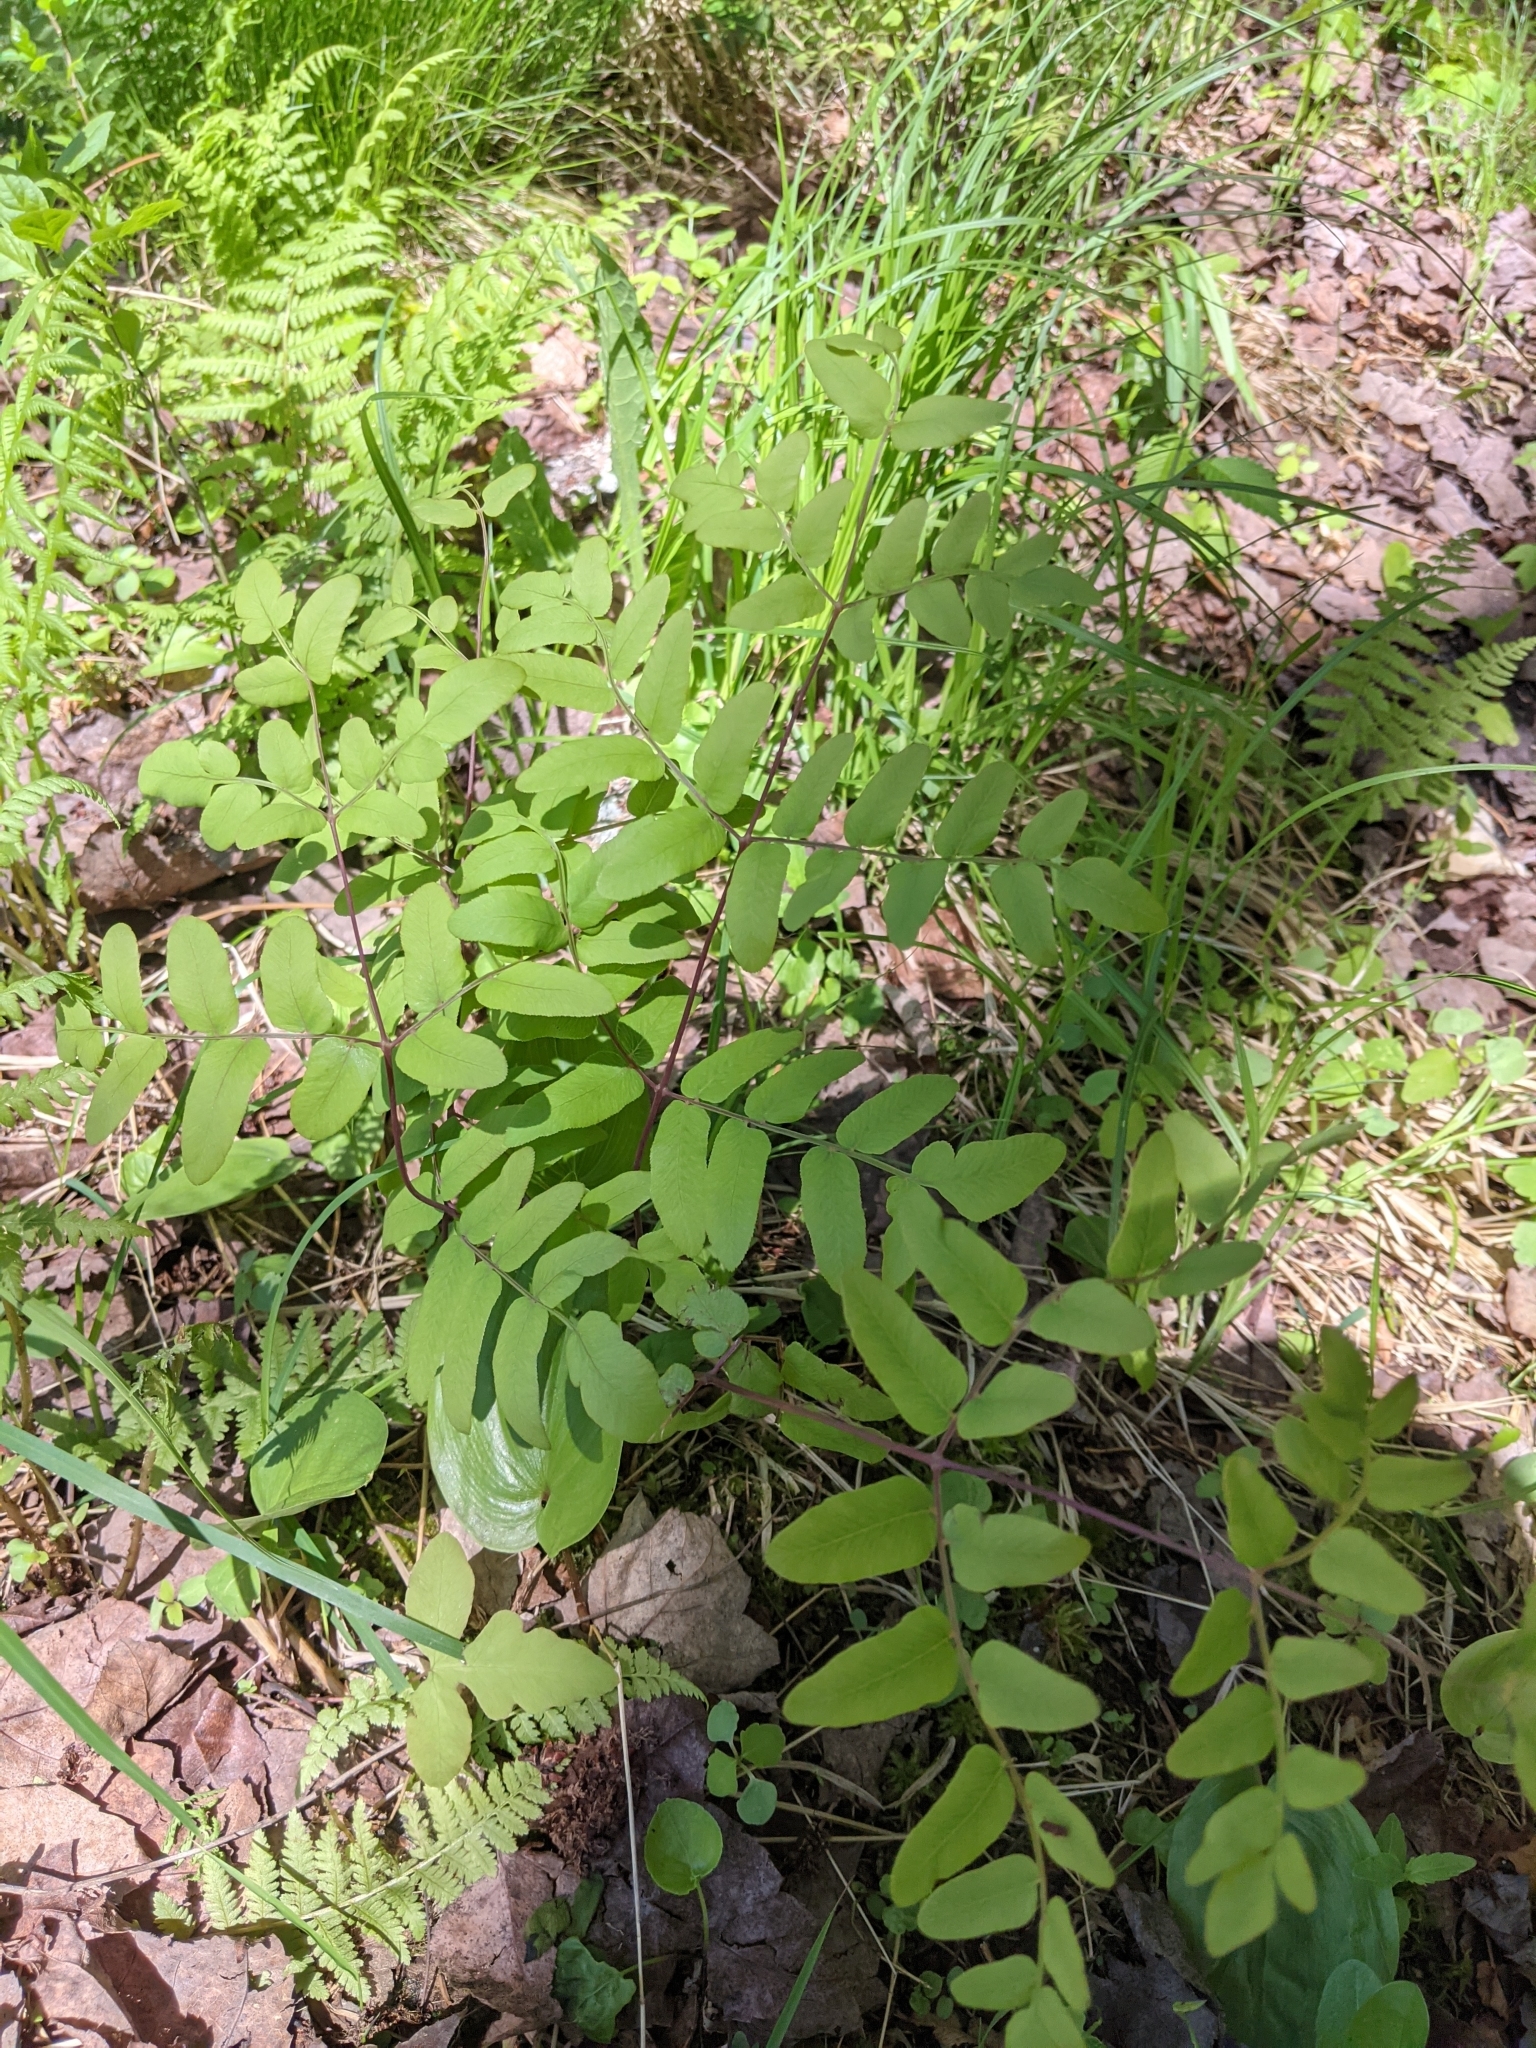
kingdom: Plantae
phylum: Tracheophyta
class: Polypodiopsida
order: Osmundales
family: Osmundaceae
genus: Osmunda
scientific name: Osmunda spectabilis
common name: American royal fern
